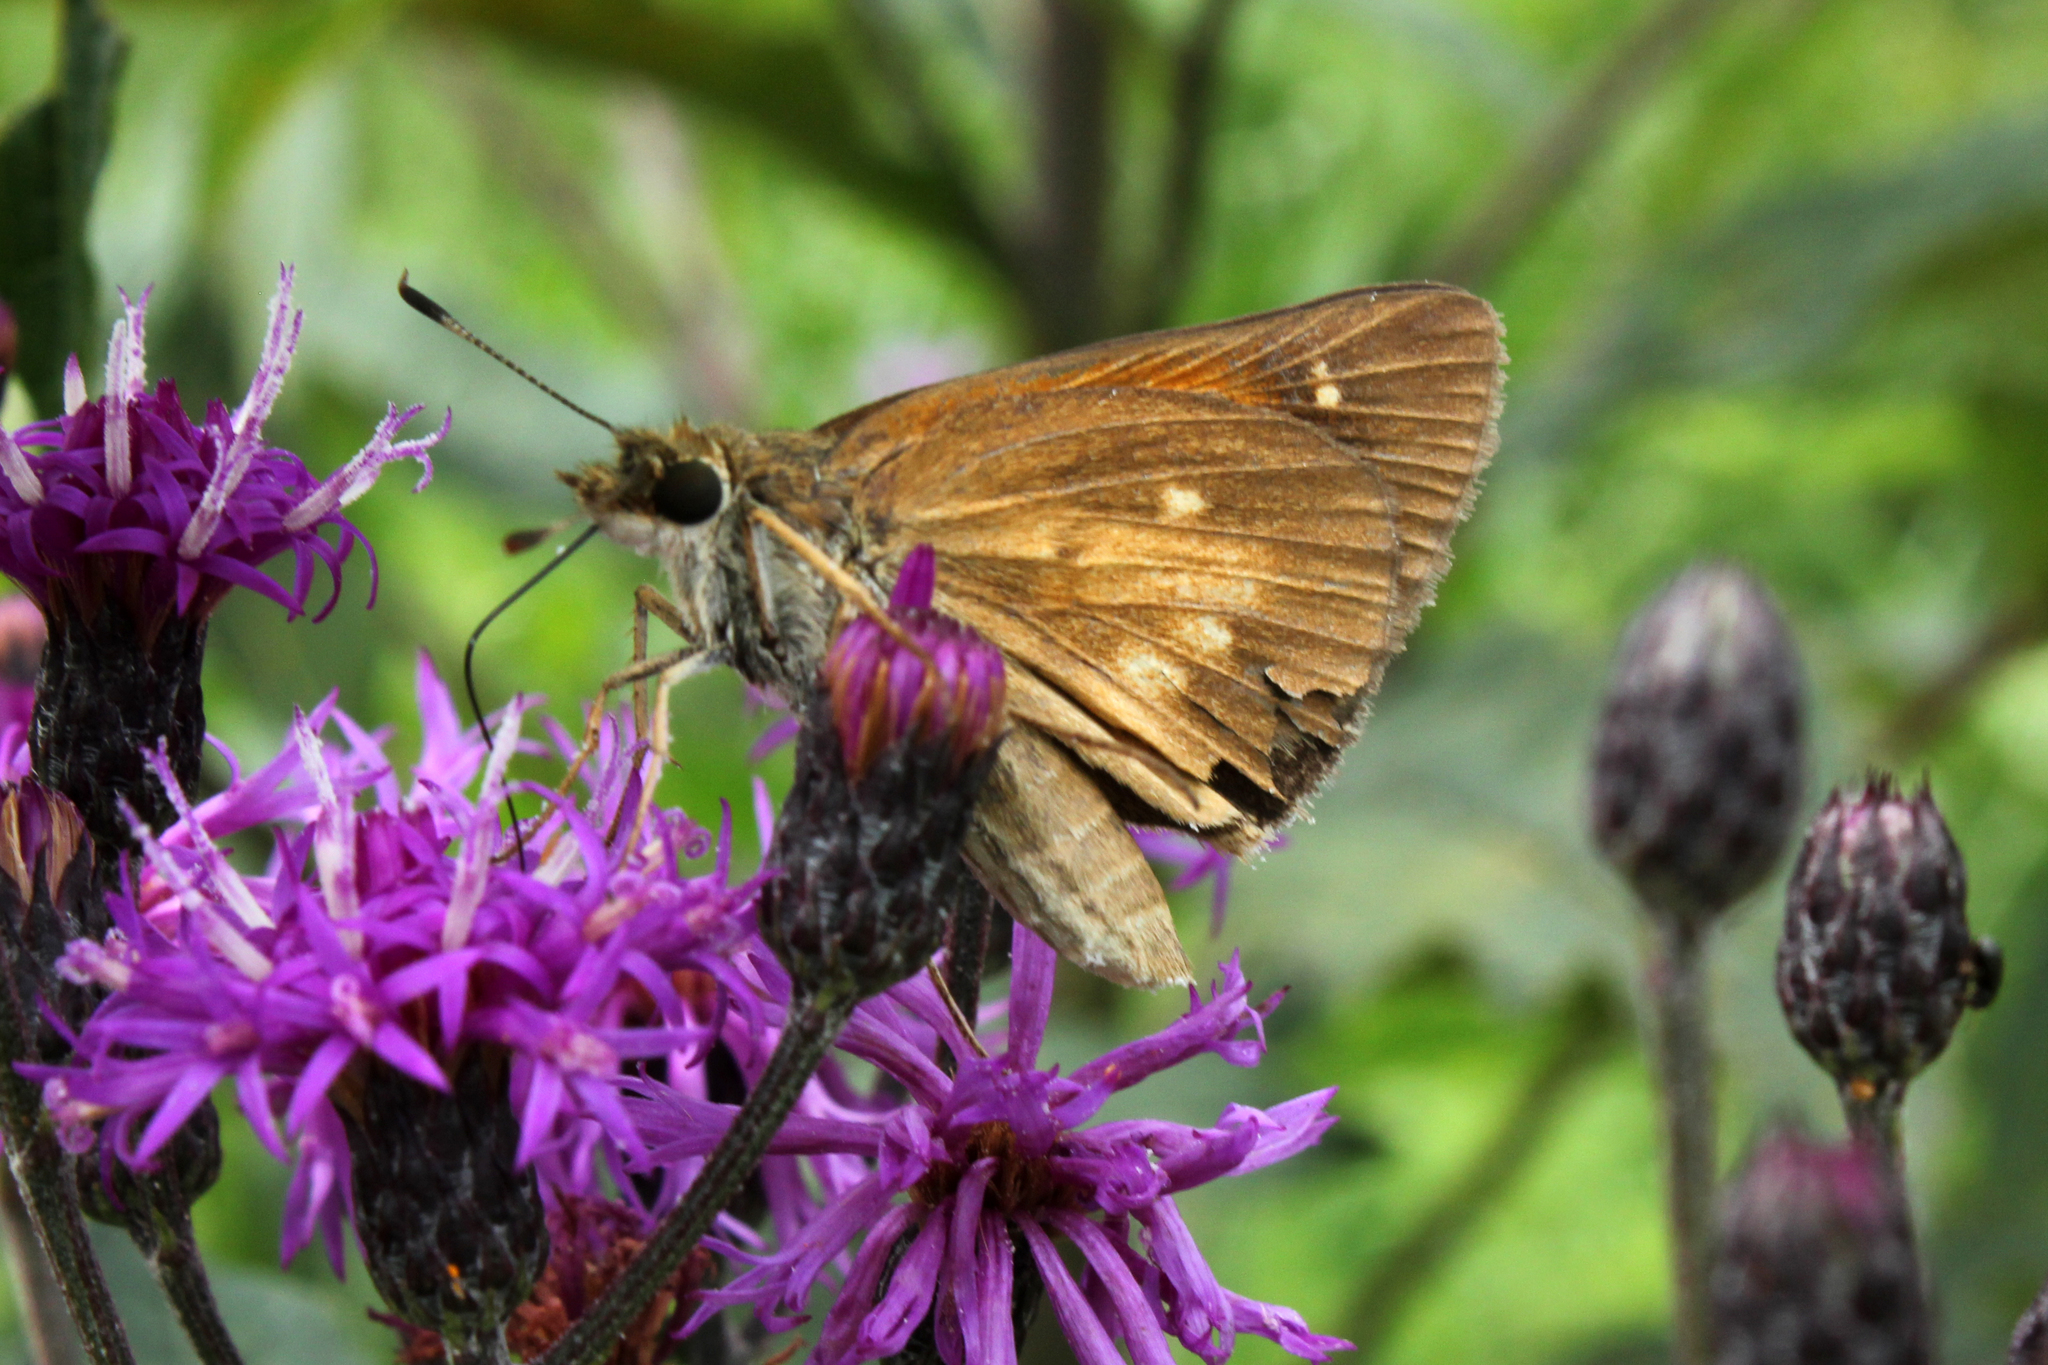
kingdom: Animalia
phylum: Arthropoda
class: Insecta
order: Lepidoptera
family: Hesperiidae
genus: Poanes
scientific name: Poanes viator
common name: Broad-winged skipper
